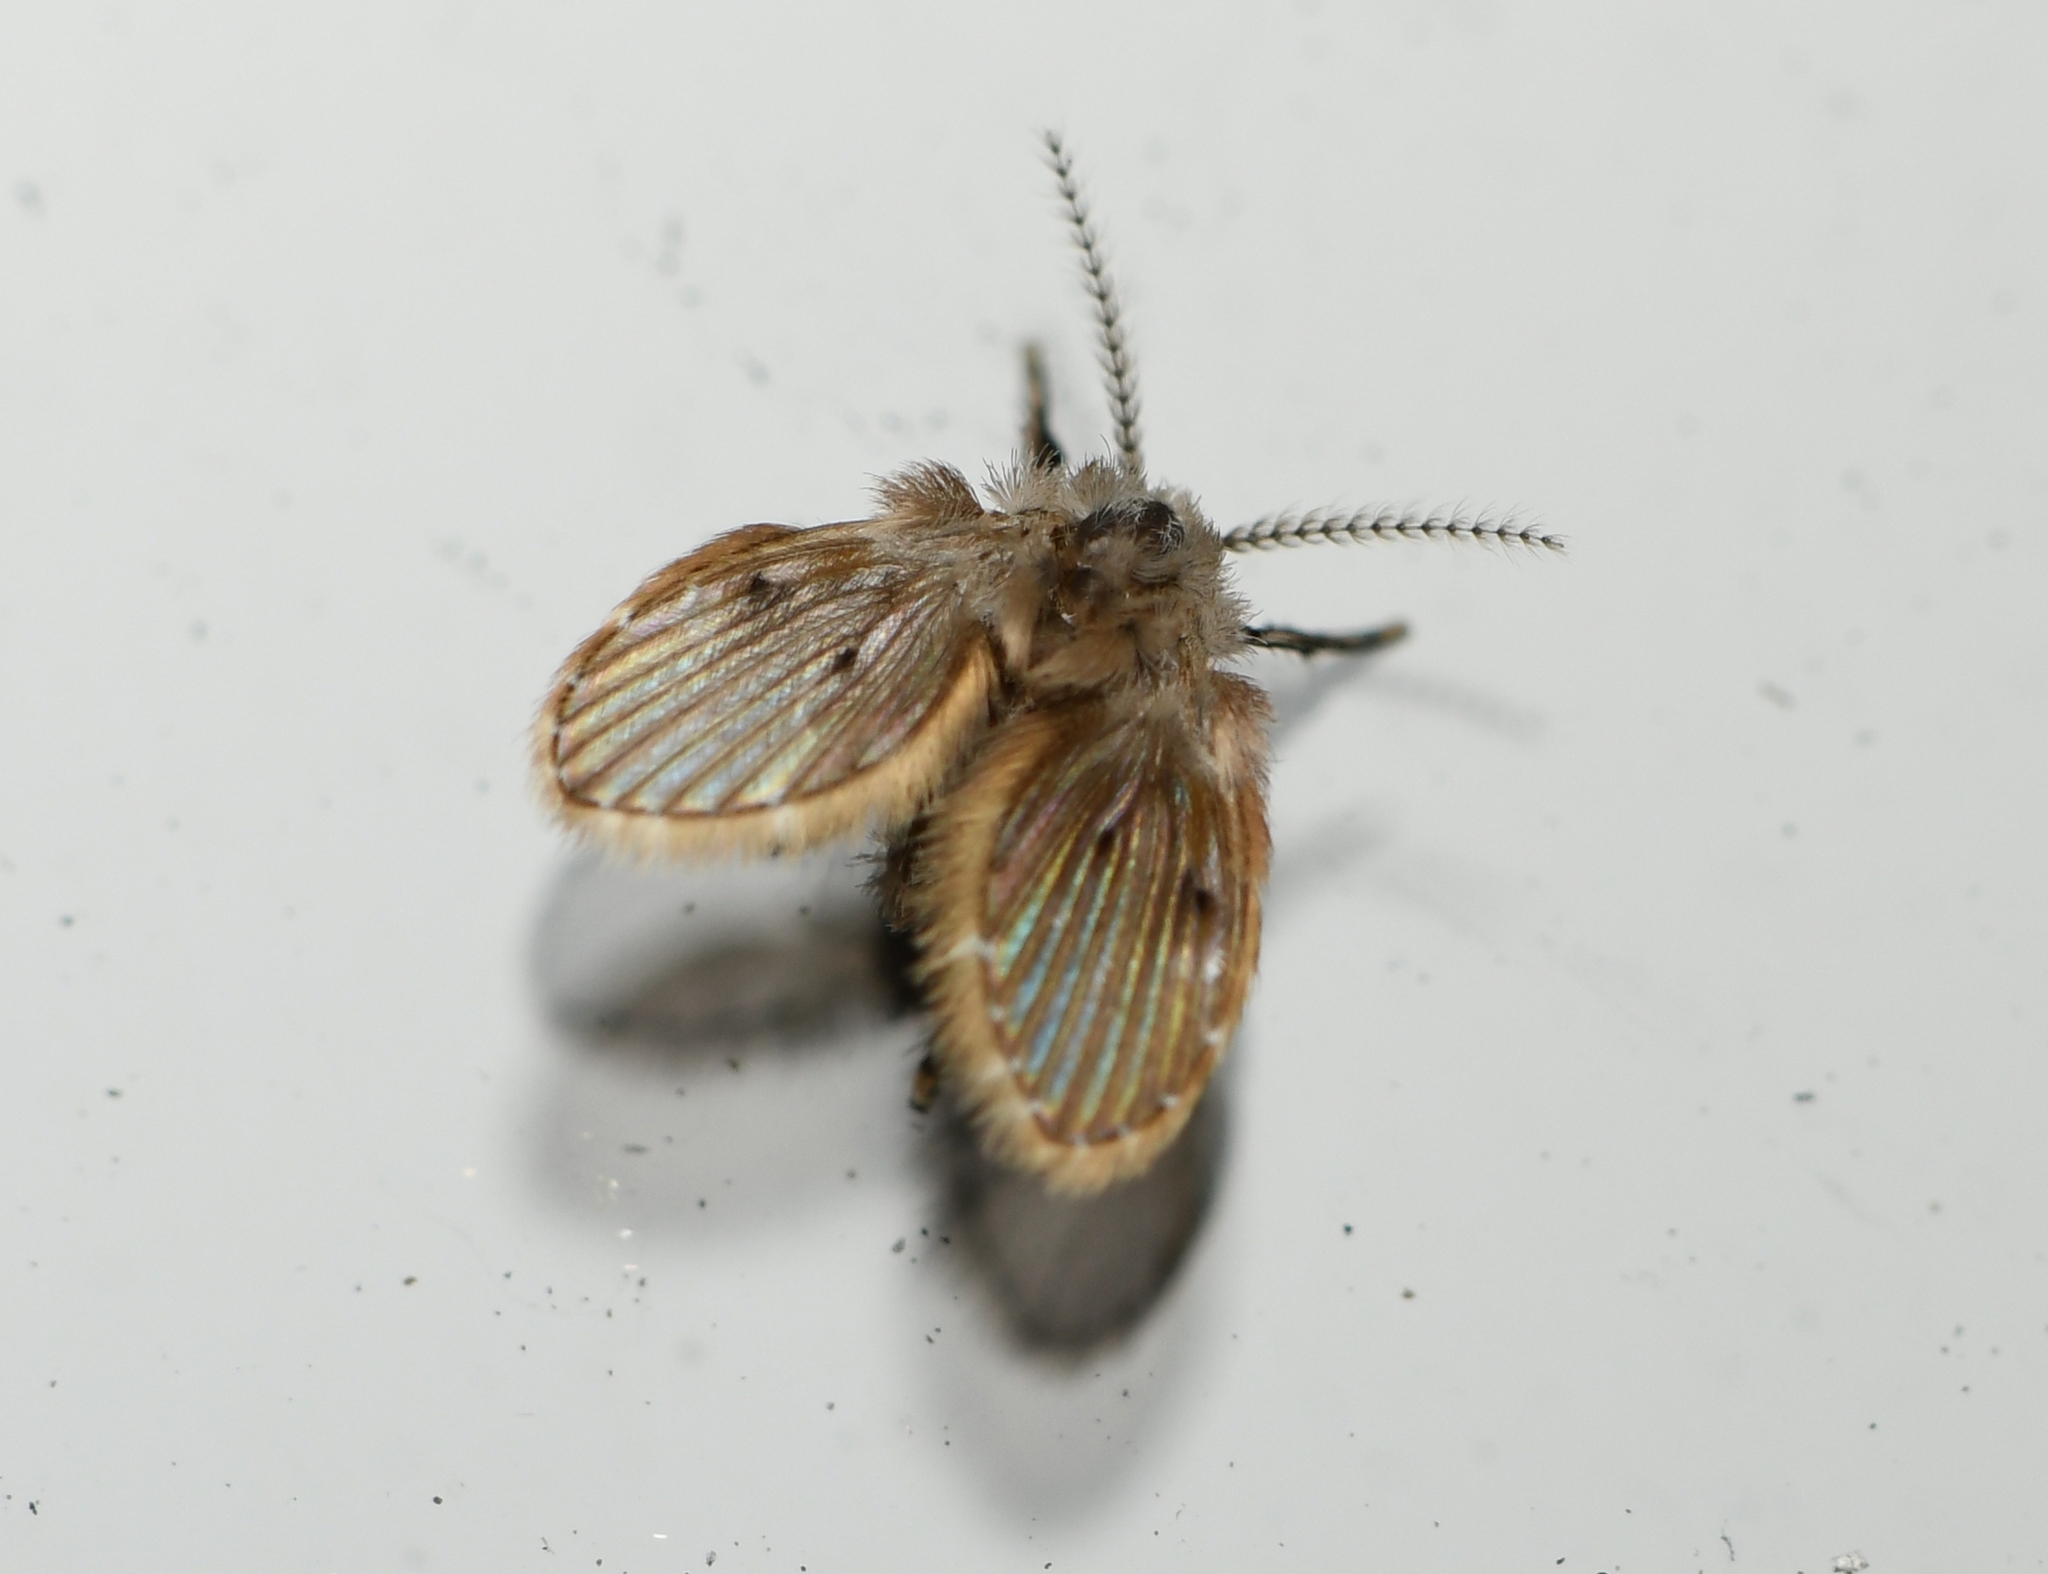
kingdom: Animalia
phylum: Arthropoda
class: Insecta
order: Diptera
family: Psychodidae
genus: Clogmia
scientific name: Clogmia albipunctatus
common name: White-spotted moth fly
